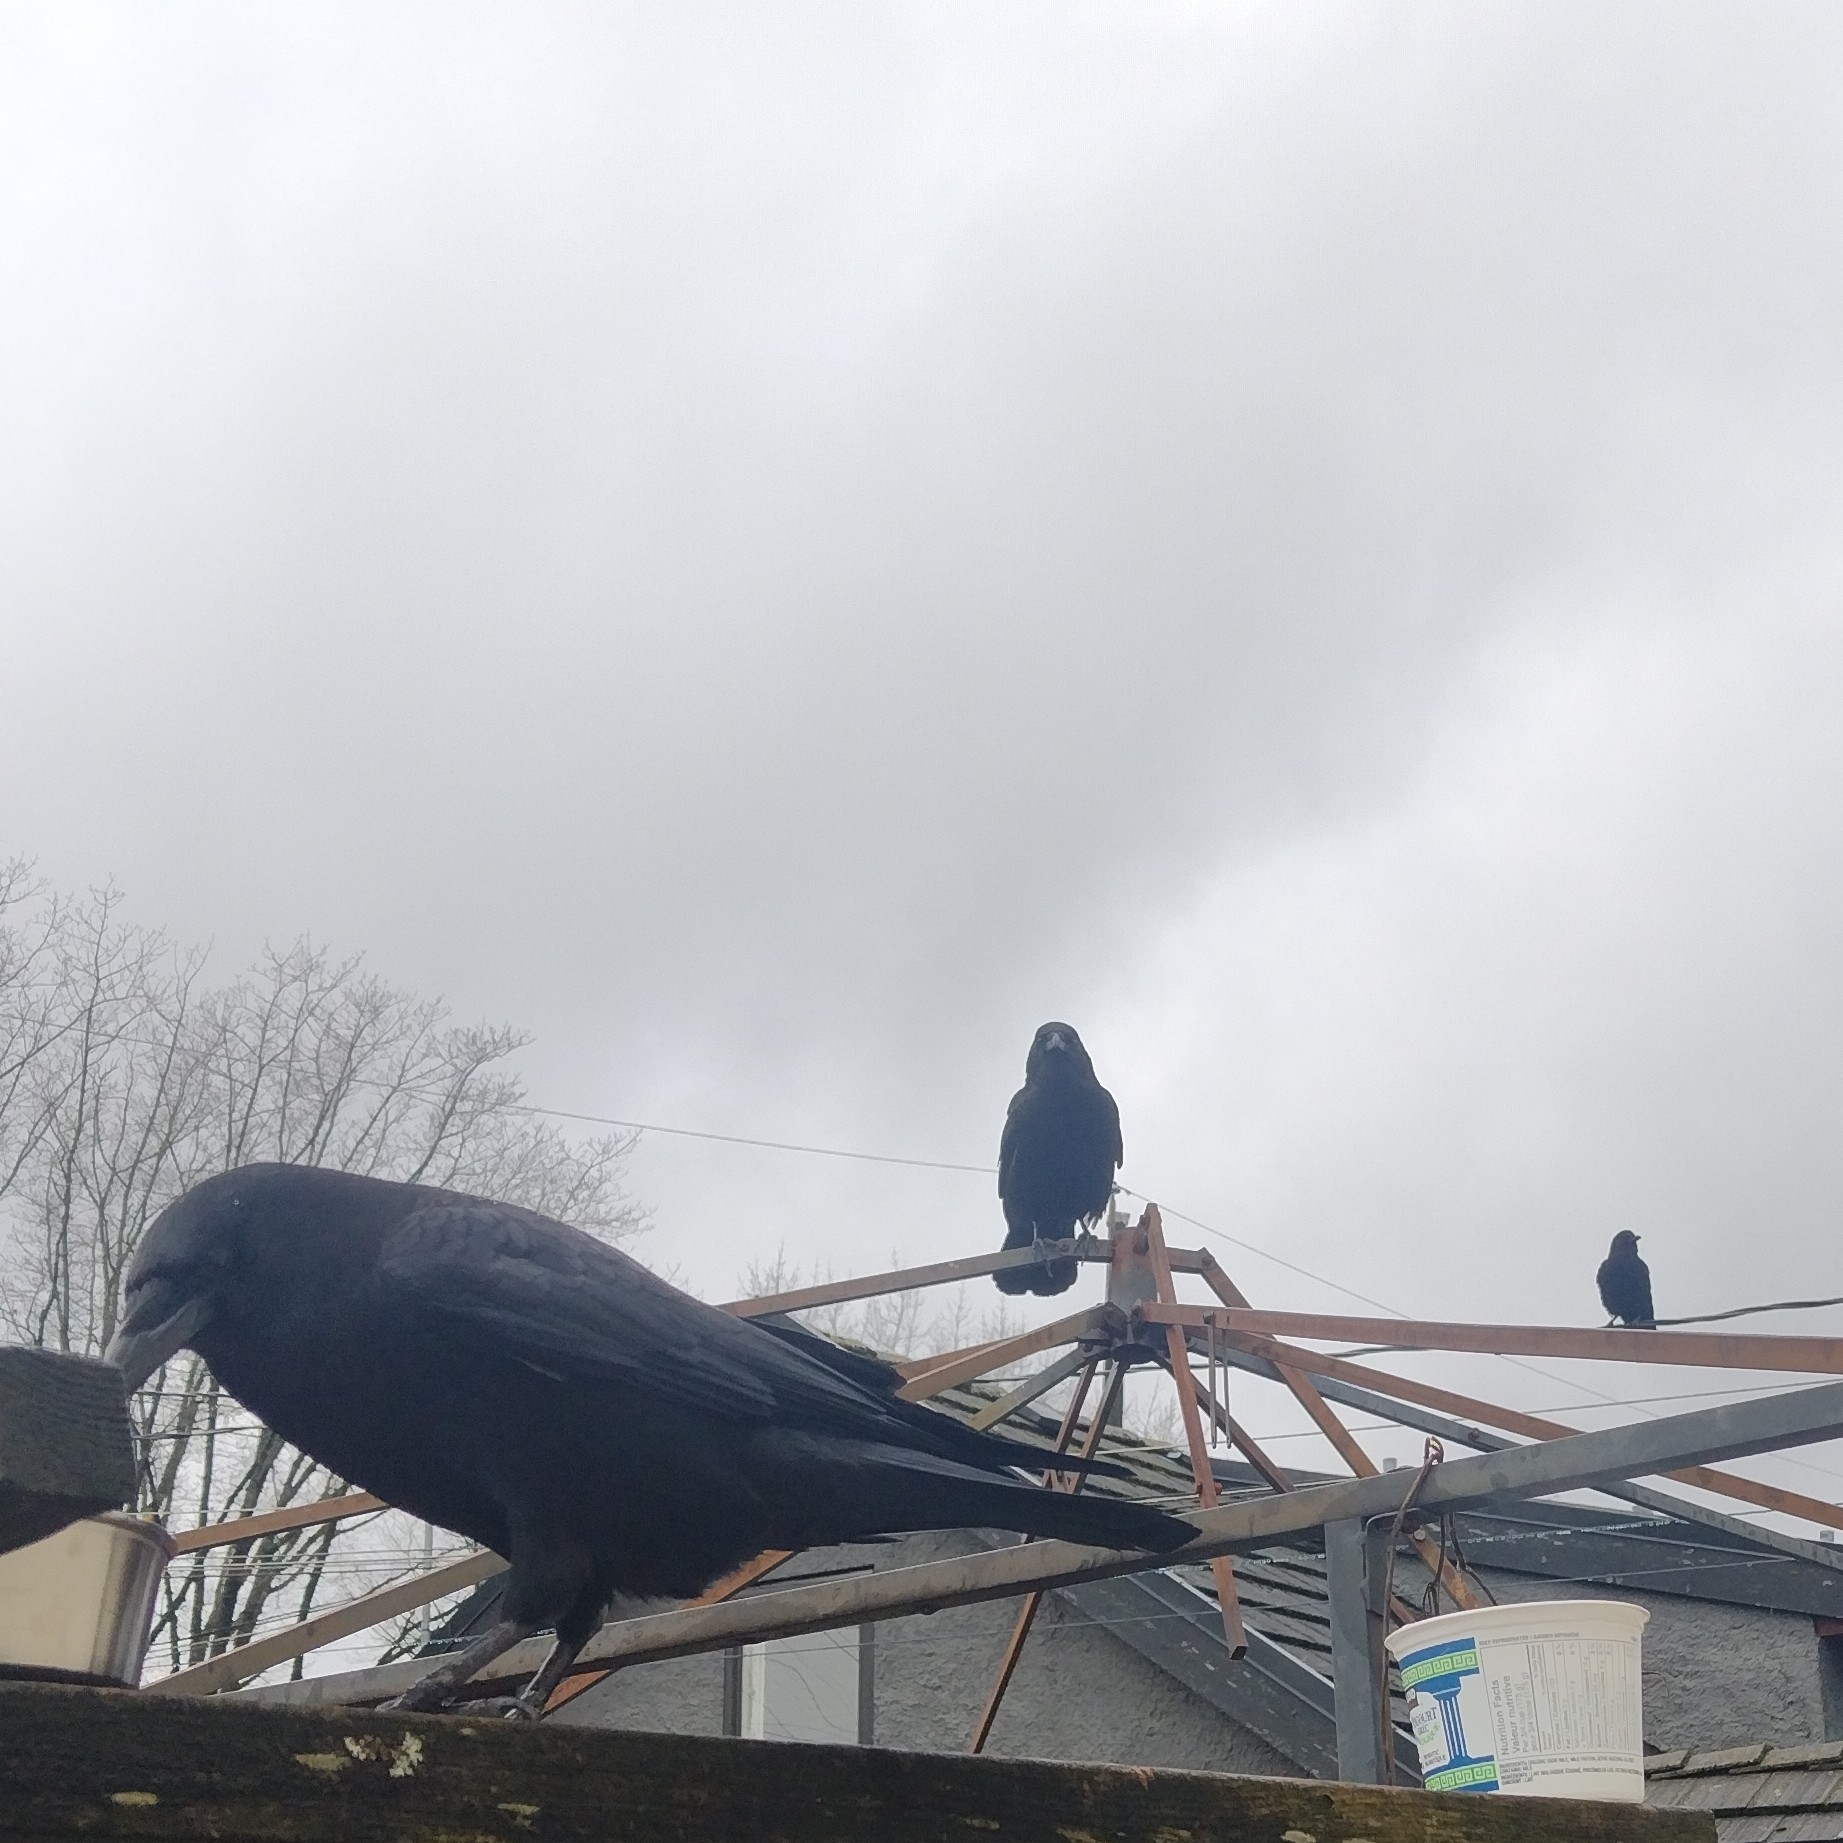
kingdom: Animalia
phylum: Chordata
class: Aves
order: Passeriformes
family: Corvidae
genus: Corvus
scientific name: Corvus brachyrhynchos
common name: American crow
